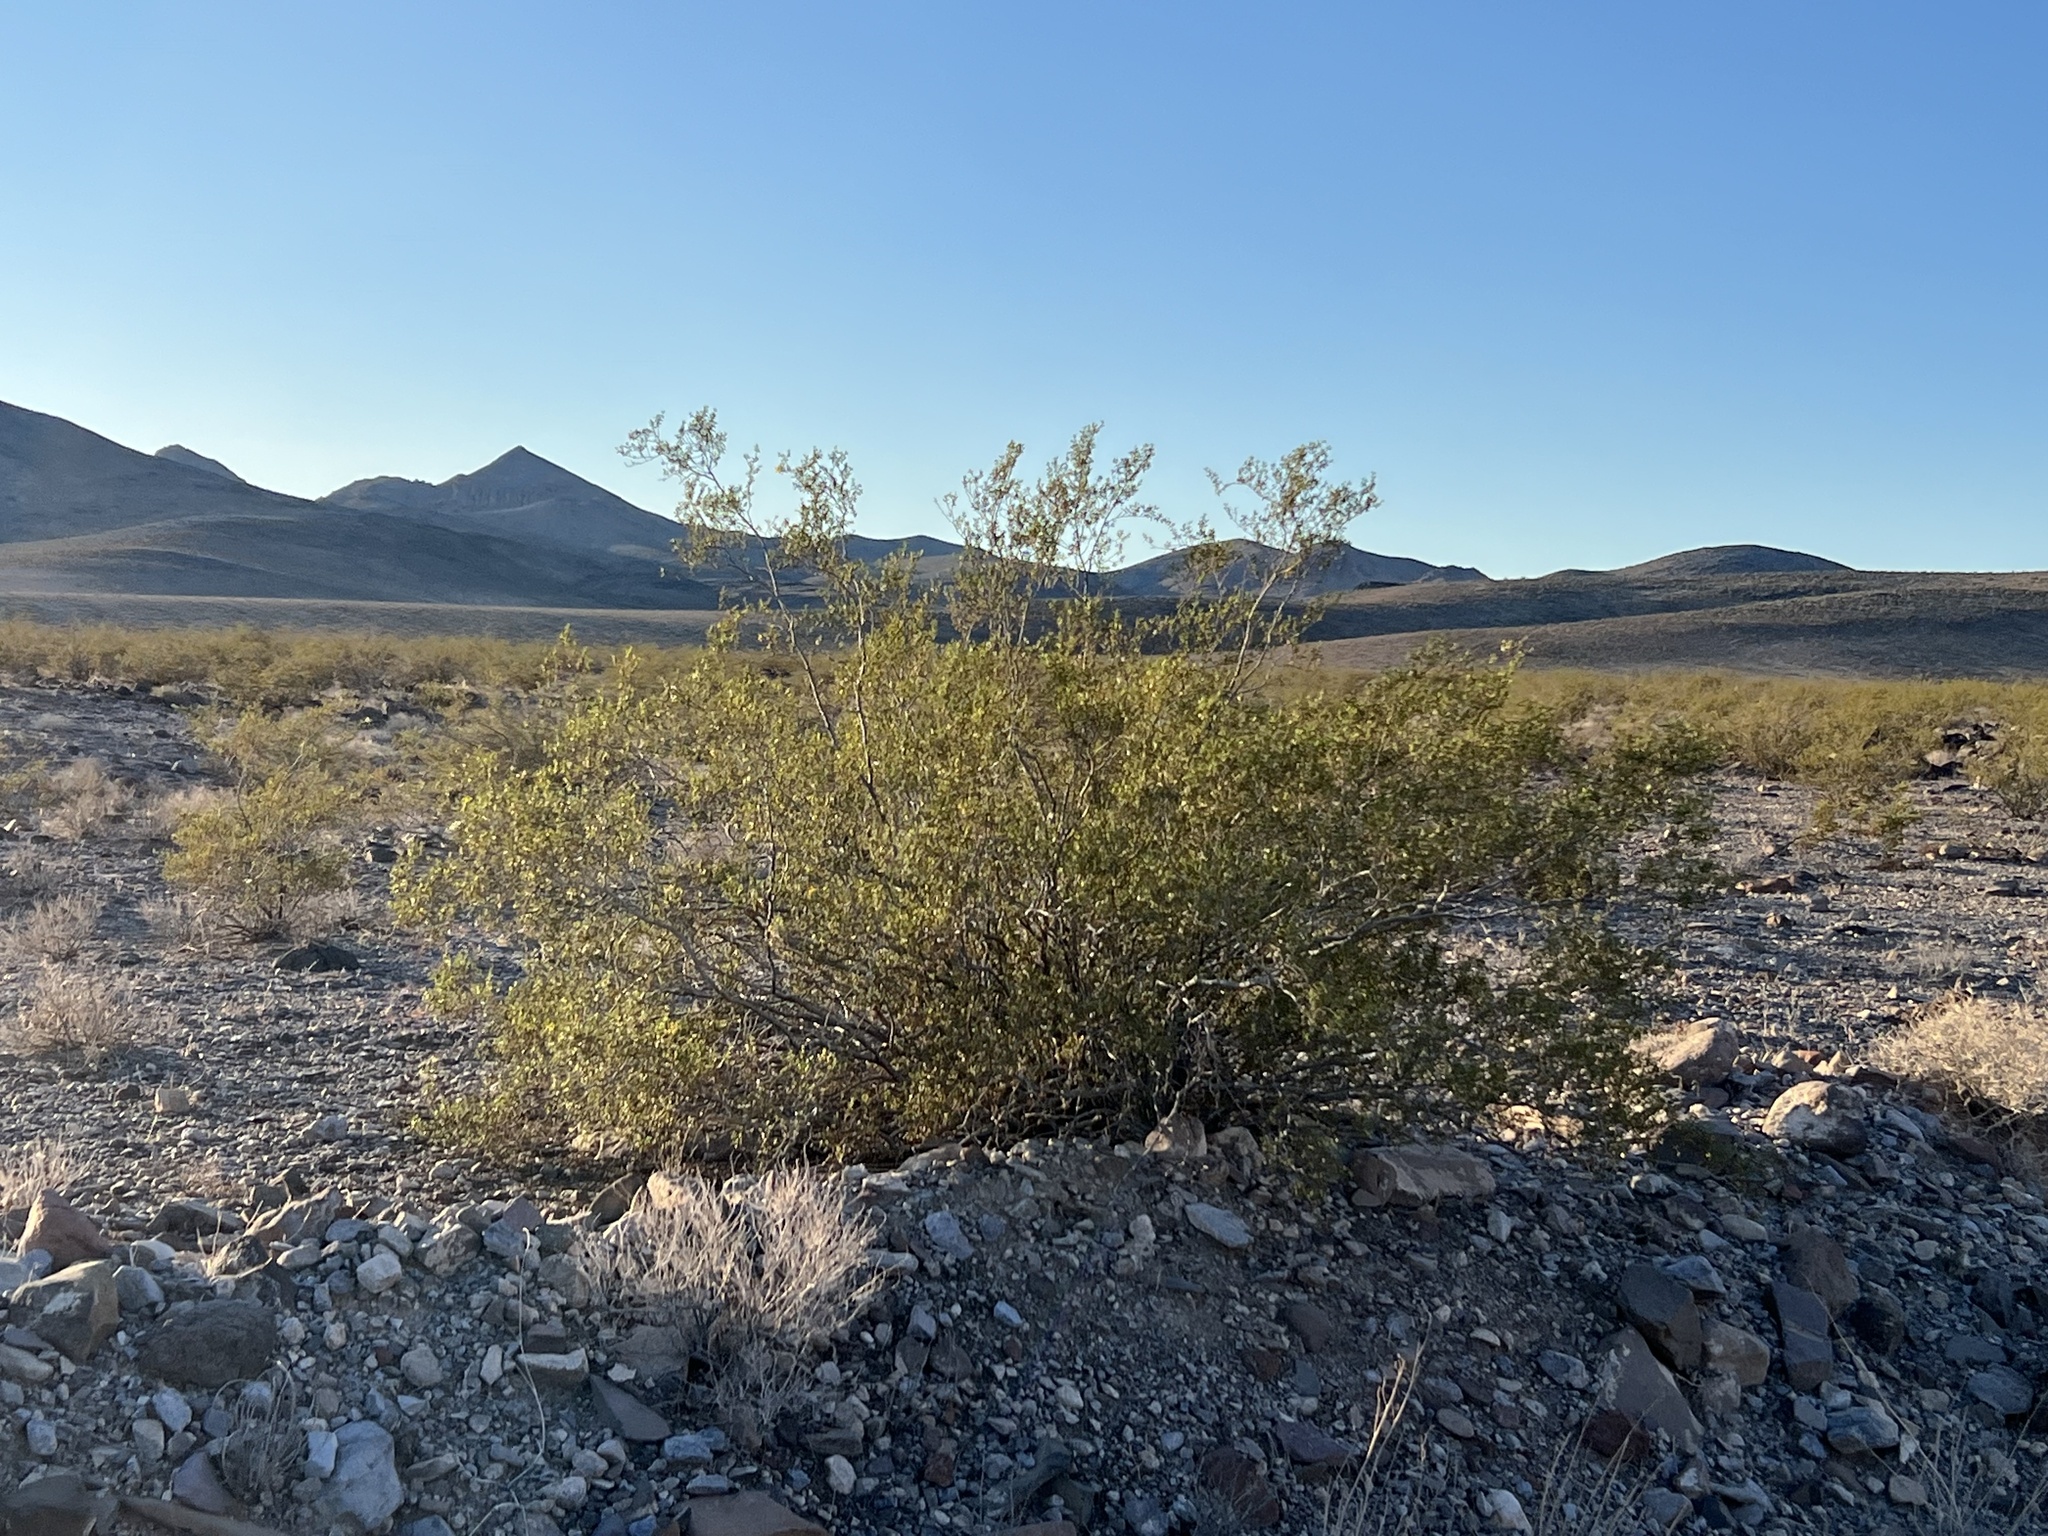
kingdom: Plantae
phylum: Tracheophyta
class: Magnoliopsida
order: Zygophyllales
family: Zygophyllaceae
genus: Larrea
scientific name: Larrea tridentata
